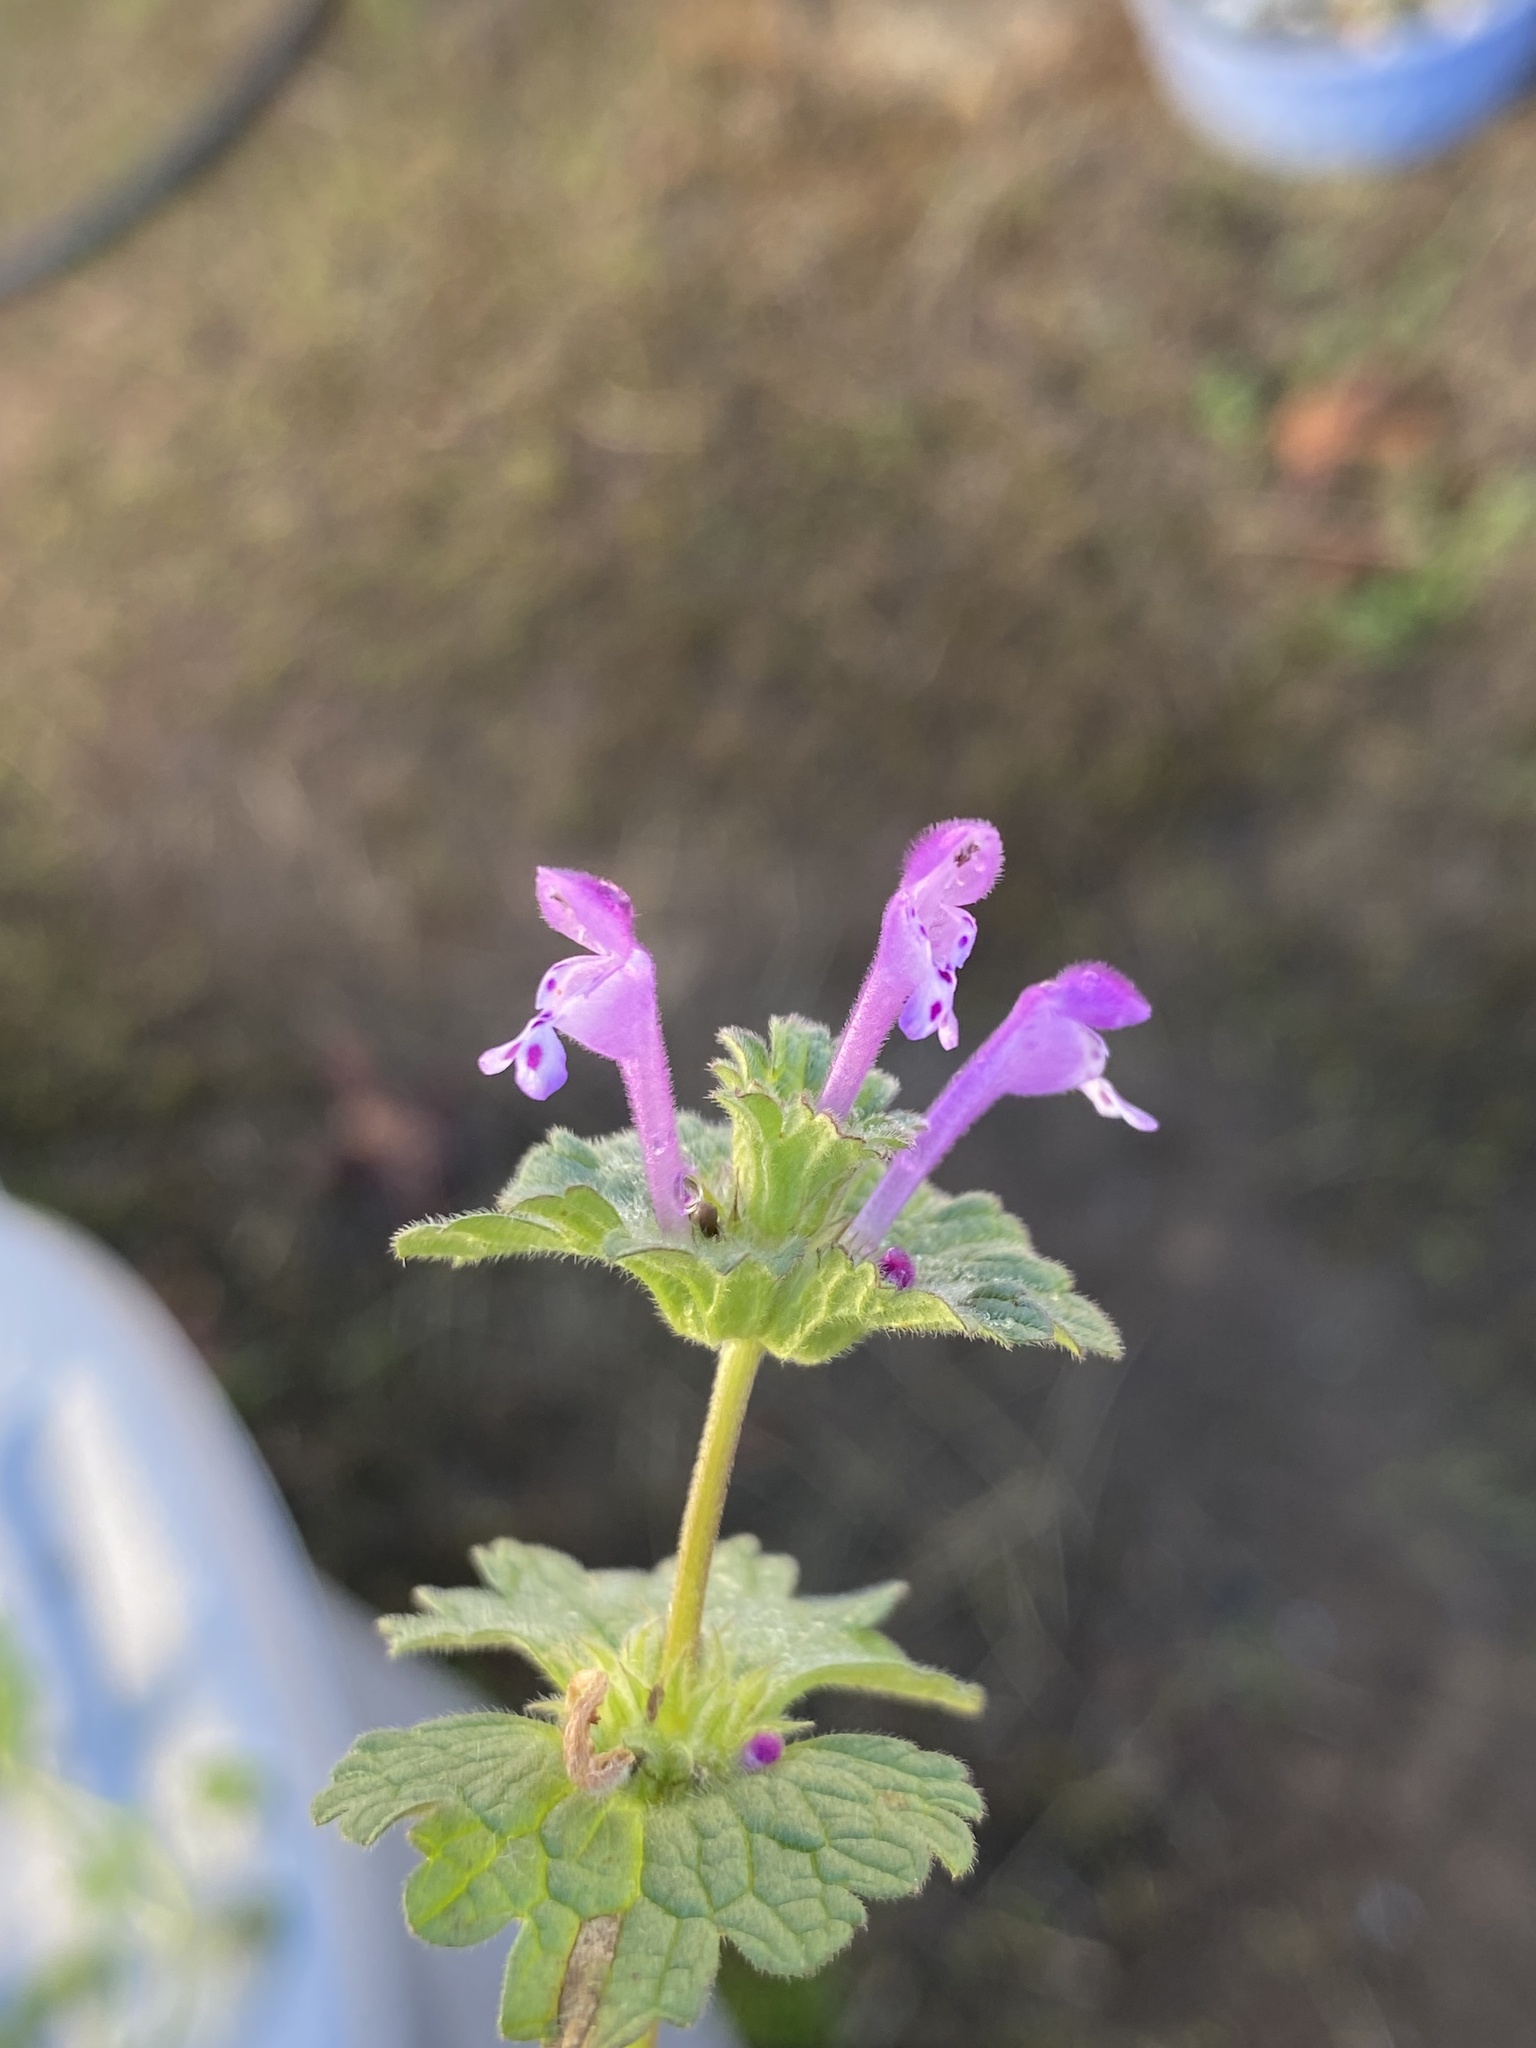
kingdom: Plantae
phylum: Tracheophyta
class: Magnoliopsida
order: Lamiales
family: Lamiaceae
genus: Lamium
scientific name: Lamium amplexicaule
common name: Henbit dead-nettle
